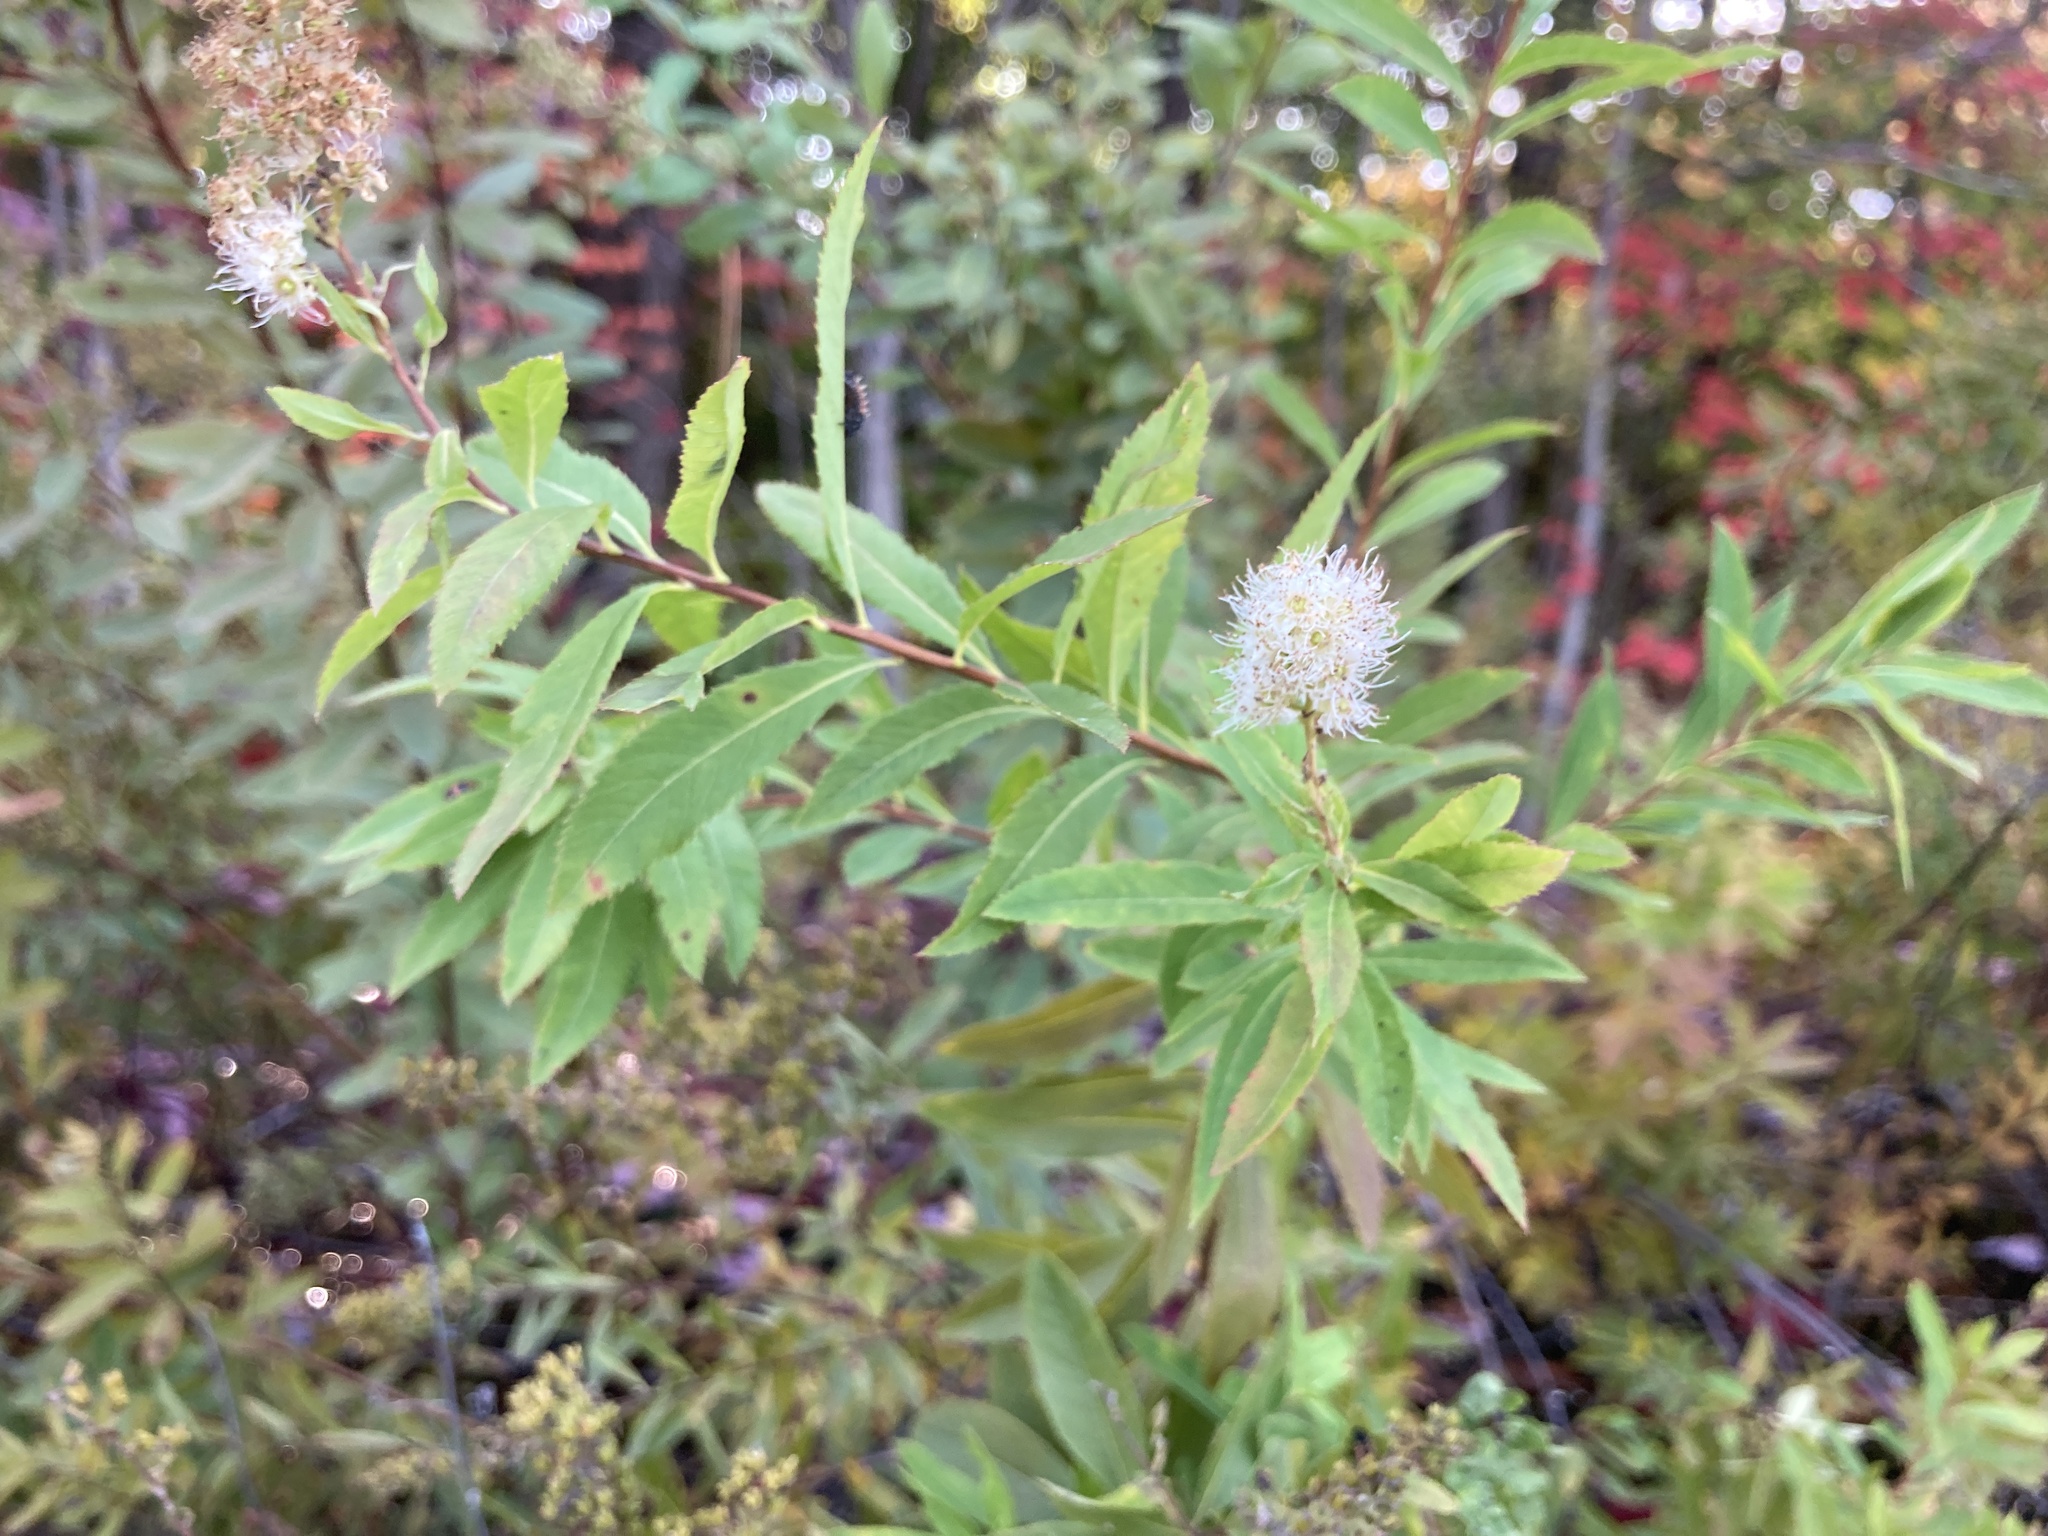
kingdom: Plantae
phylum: Tracheophyta
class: Magnoliopsida
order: Rosales
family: Rosaceae
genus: Spiraea
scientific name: Spiraea alba
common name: Pale bridewort
